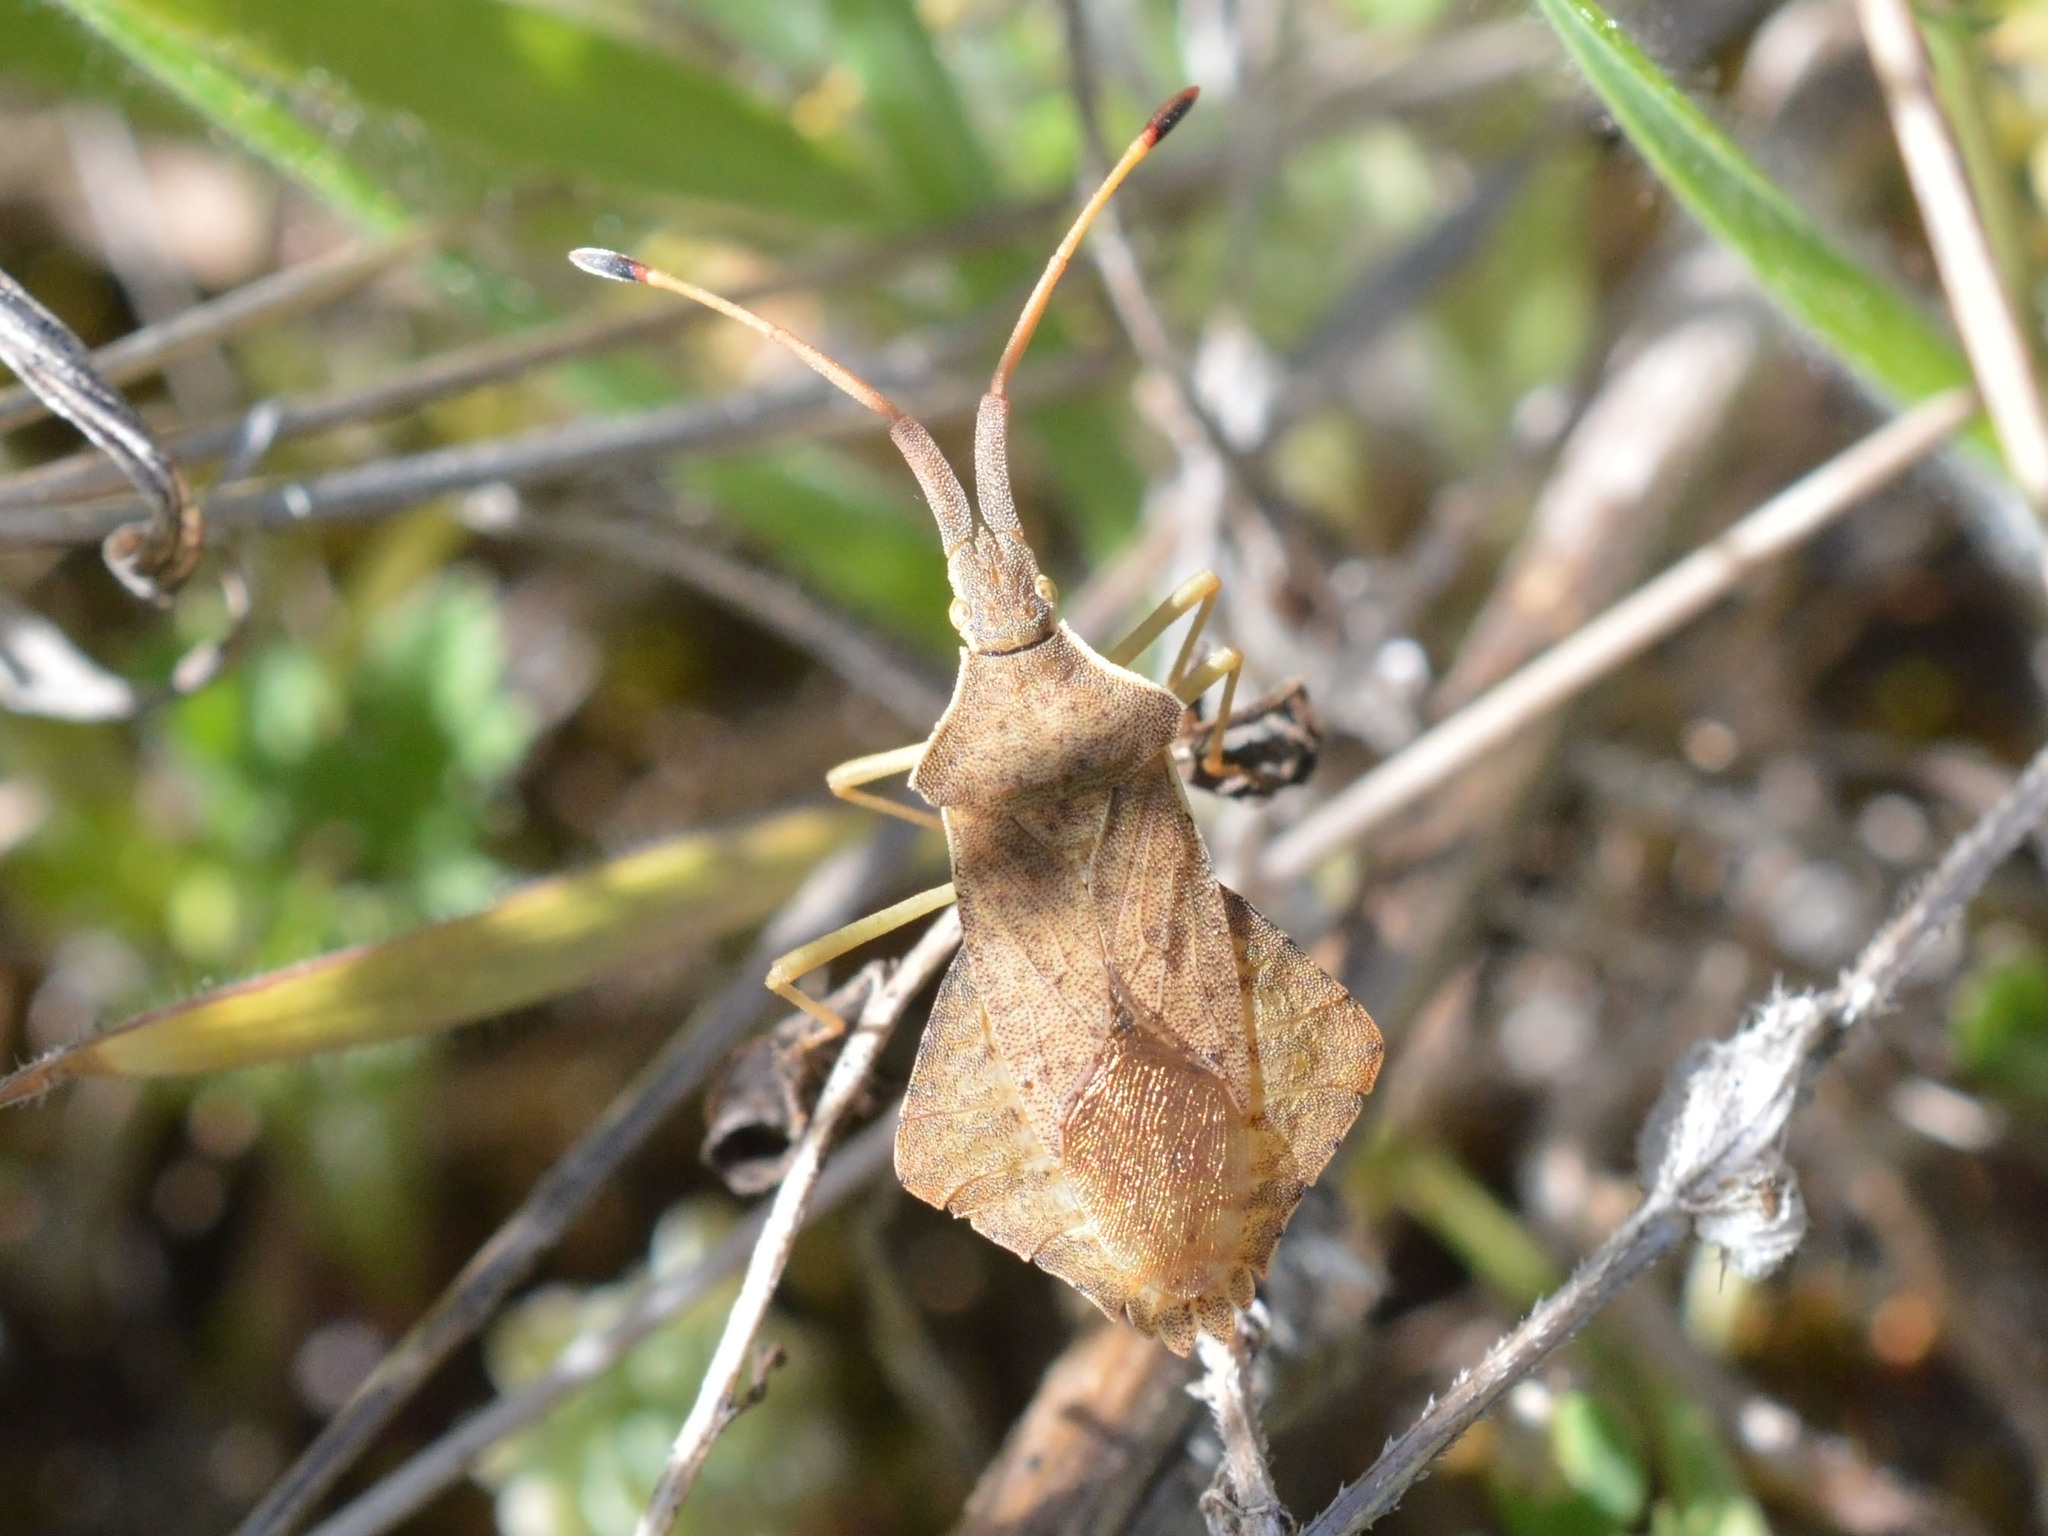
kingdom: Animalia
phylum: Arthropoda
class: Insecta
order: Hemiptera
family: Coreidae
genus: Syromastus
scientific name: Syromastus rhombeus
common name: Rhombic leatherbug
